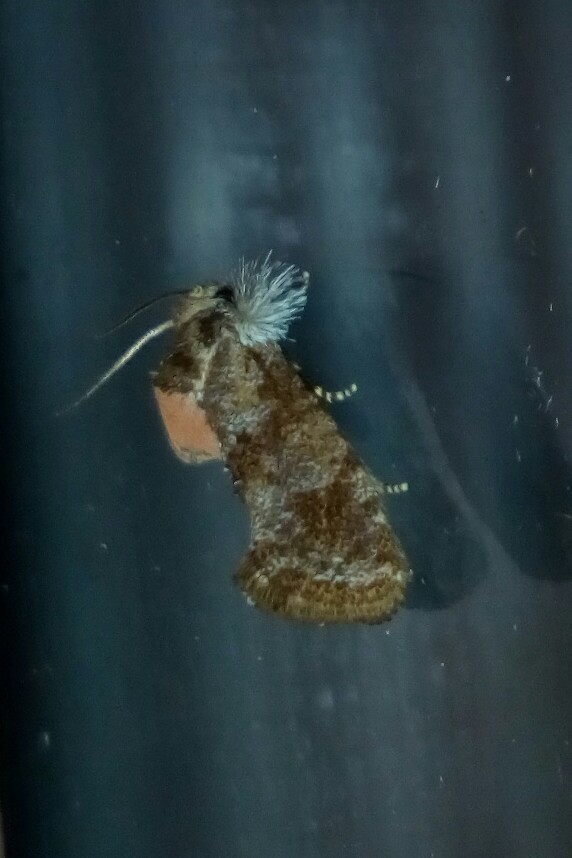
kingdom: Animalia
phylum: Arthropoda
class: Insecta
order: Lepidoptera
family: Tineidae
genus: Acrolophus
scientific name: Acrolophus panamae
